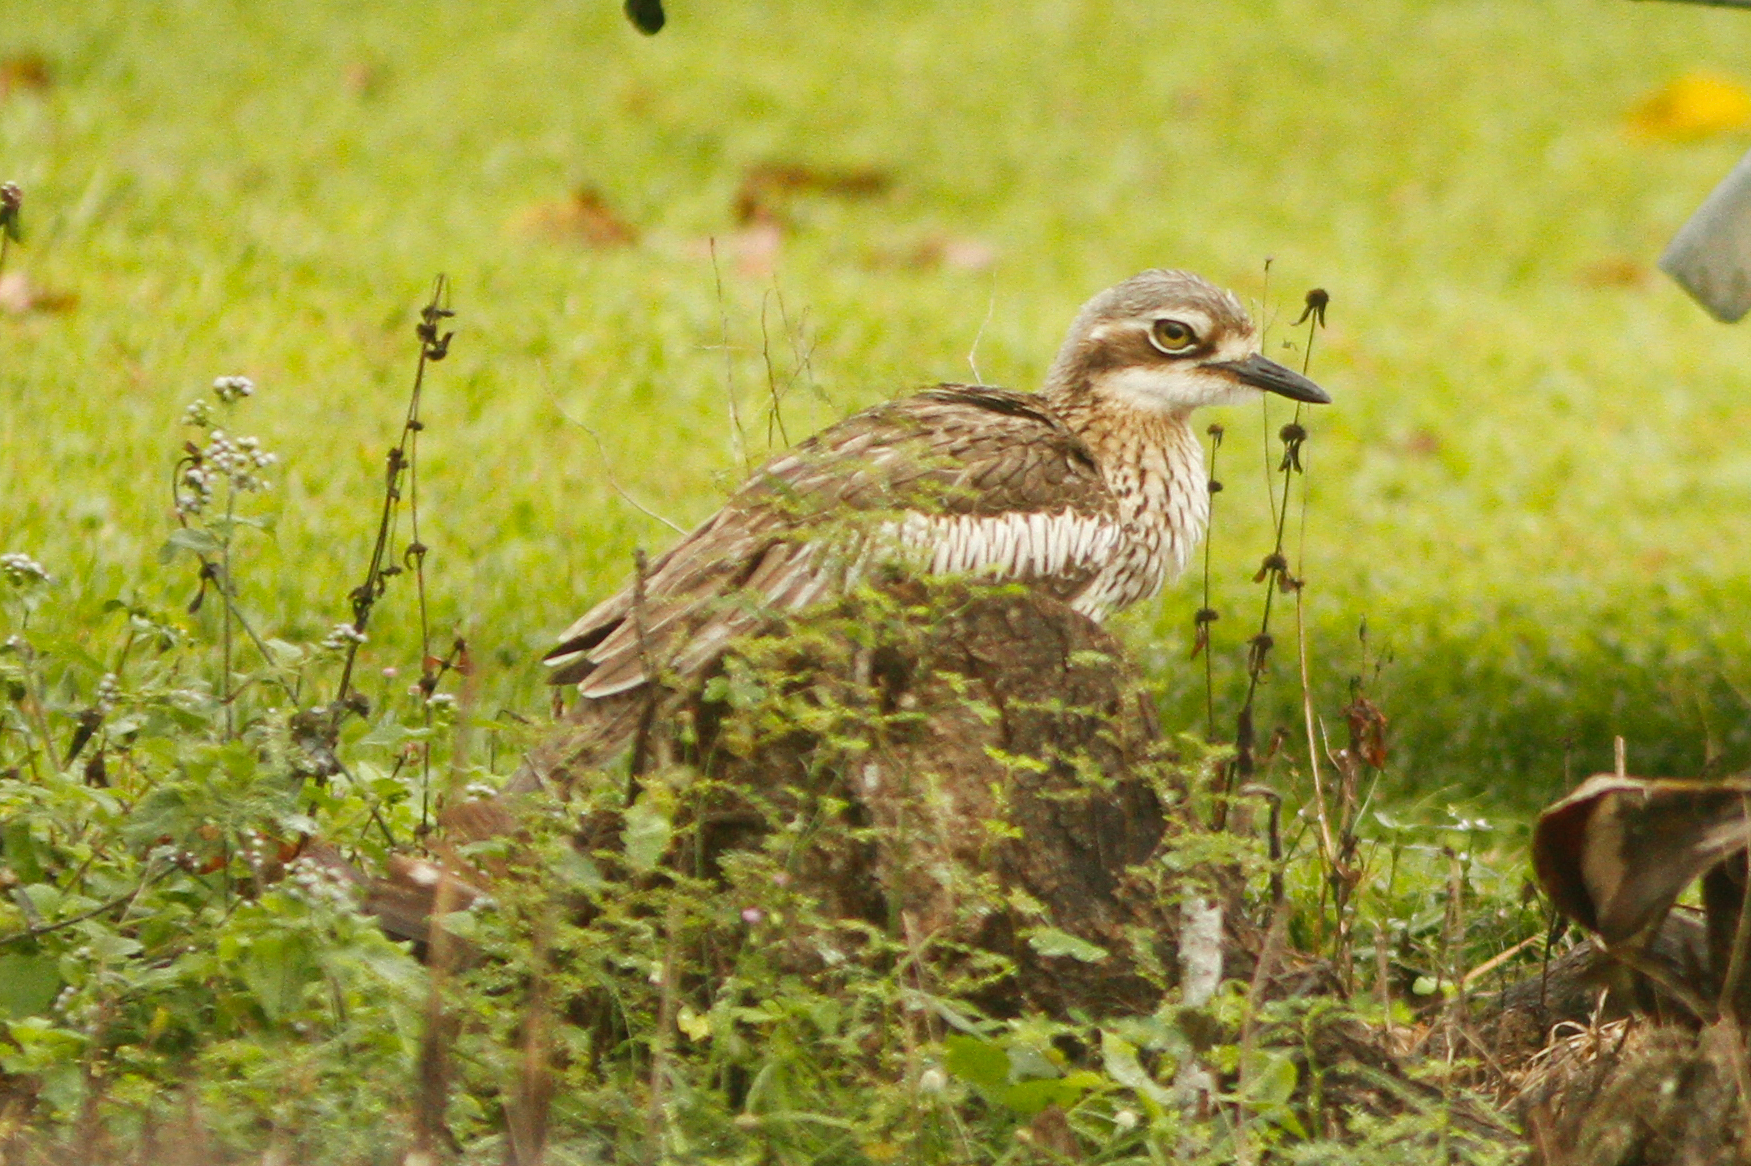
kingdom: Animalia
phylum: Chordata
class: Aves
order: Charadriiformes
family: Burhinidae
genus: Burhinus
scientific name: Burhinus grallarius
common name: Bush stone-curlew
